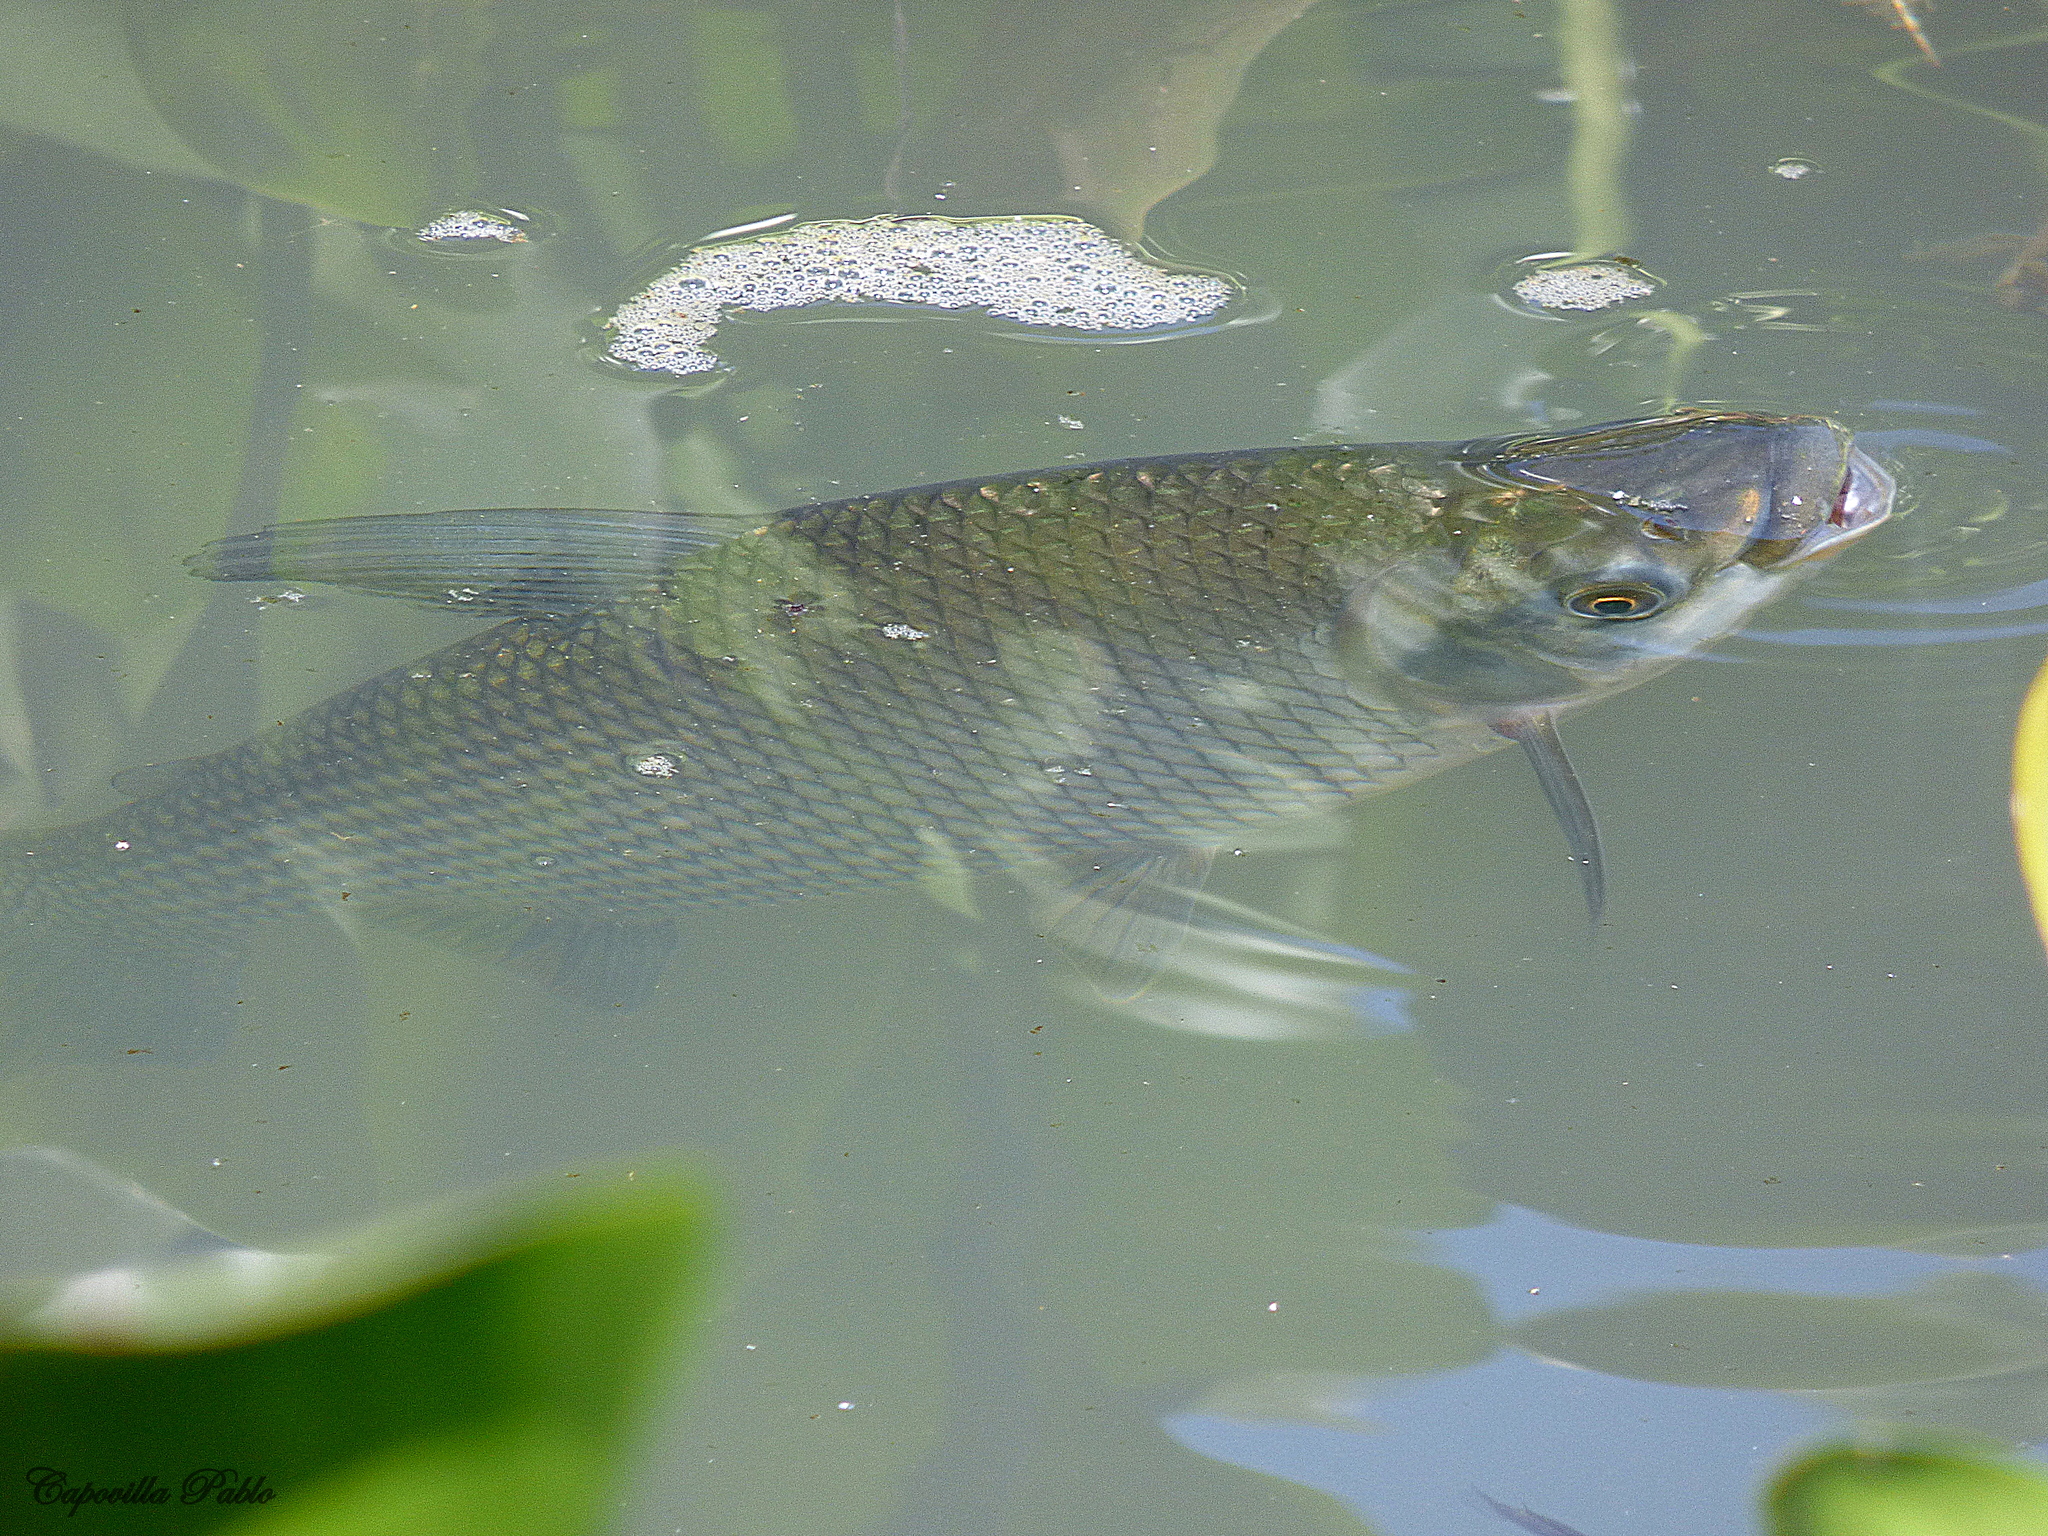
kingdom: Animalia
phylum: Chordata
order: Characiformes
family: Prochilodontidae
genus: Prochilodus
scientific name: Prochilodus lineatus
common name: Curimbata
